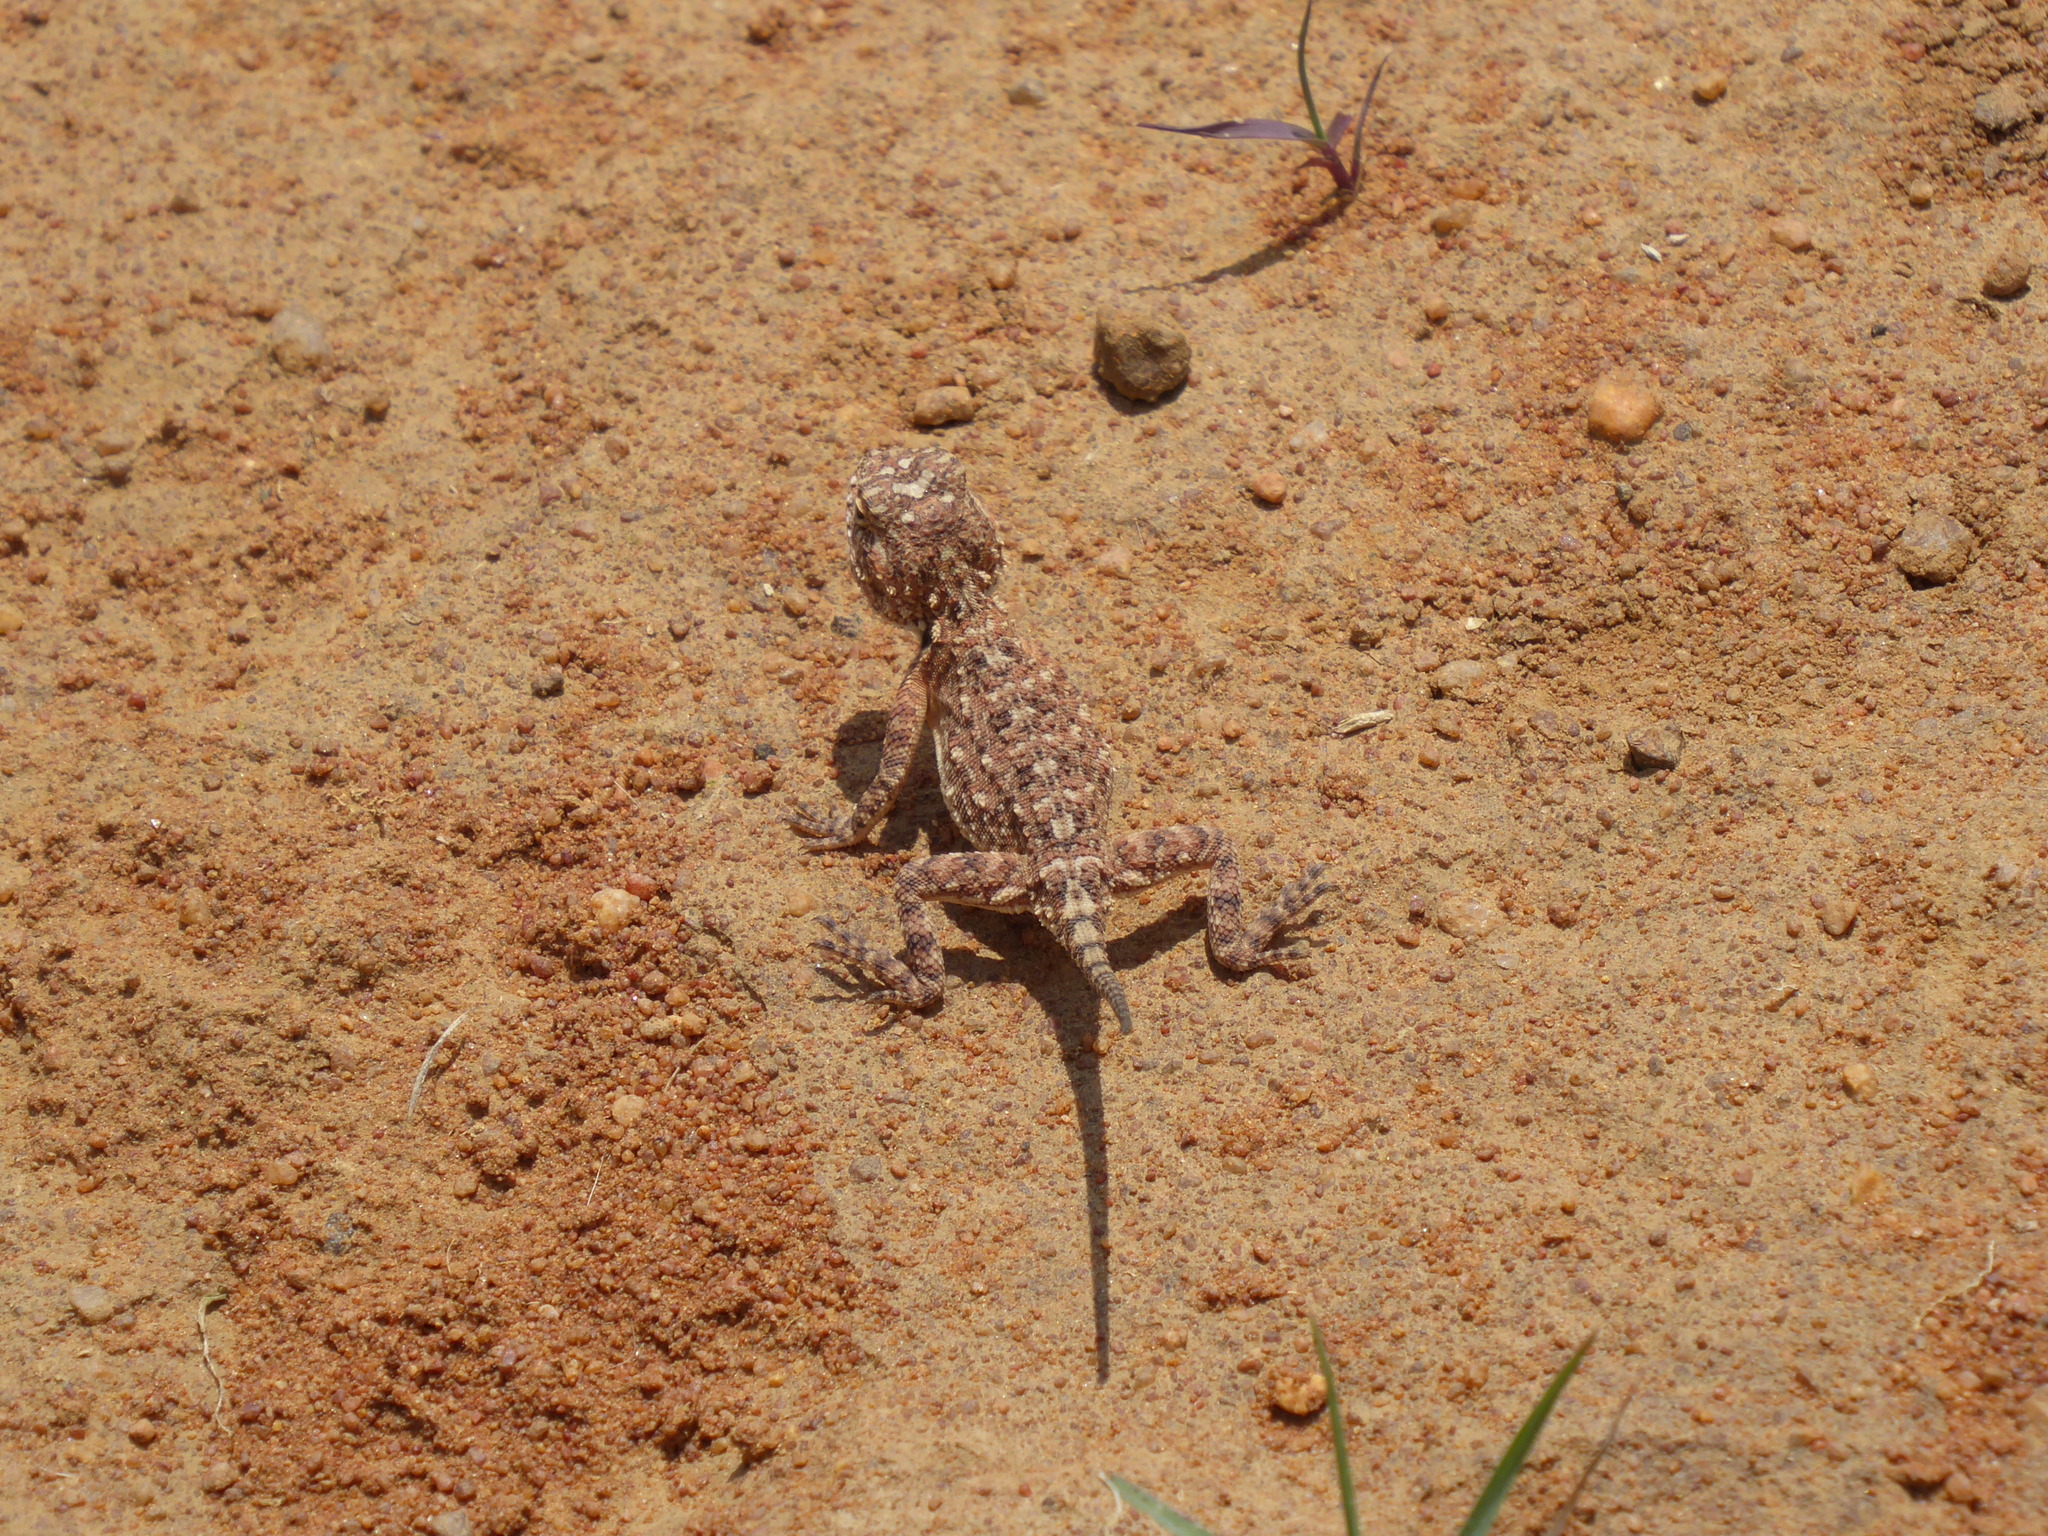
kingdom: Animalia
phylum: Chordata
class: Squamata
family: Agamidae
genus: Agama
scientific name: Agama aculeata
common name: Common ground agama
